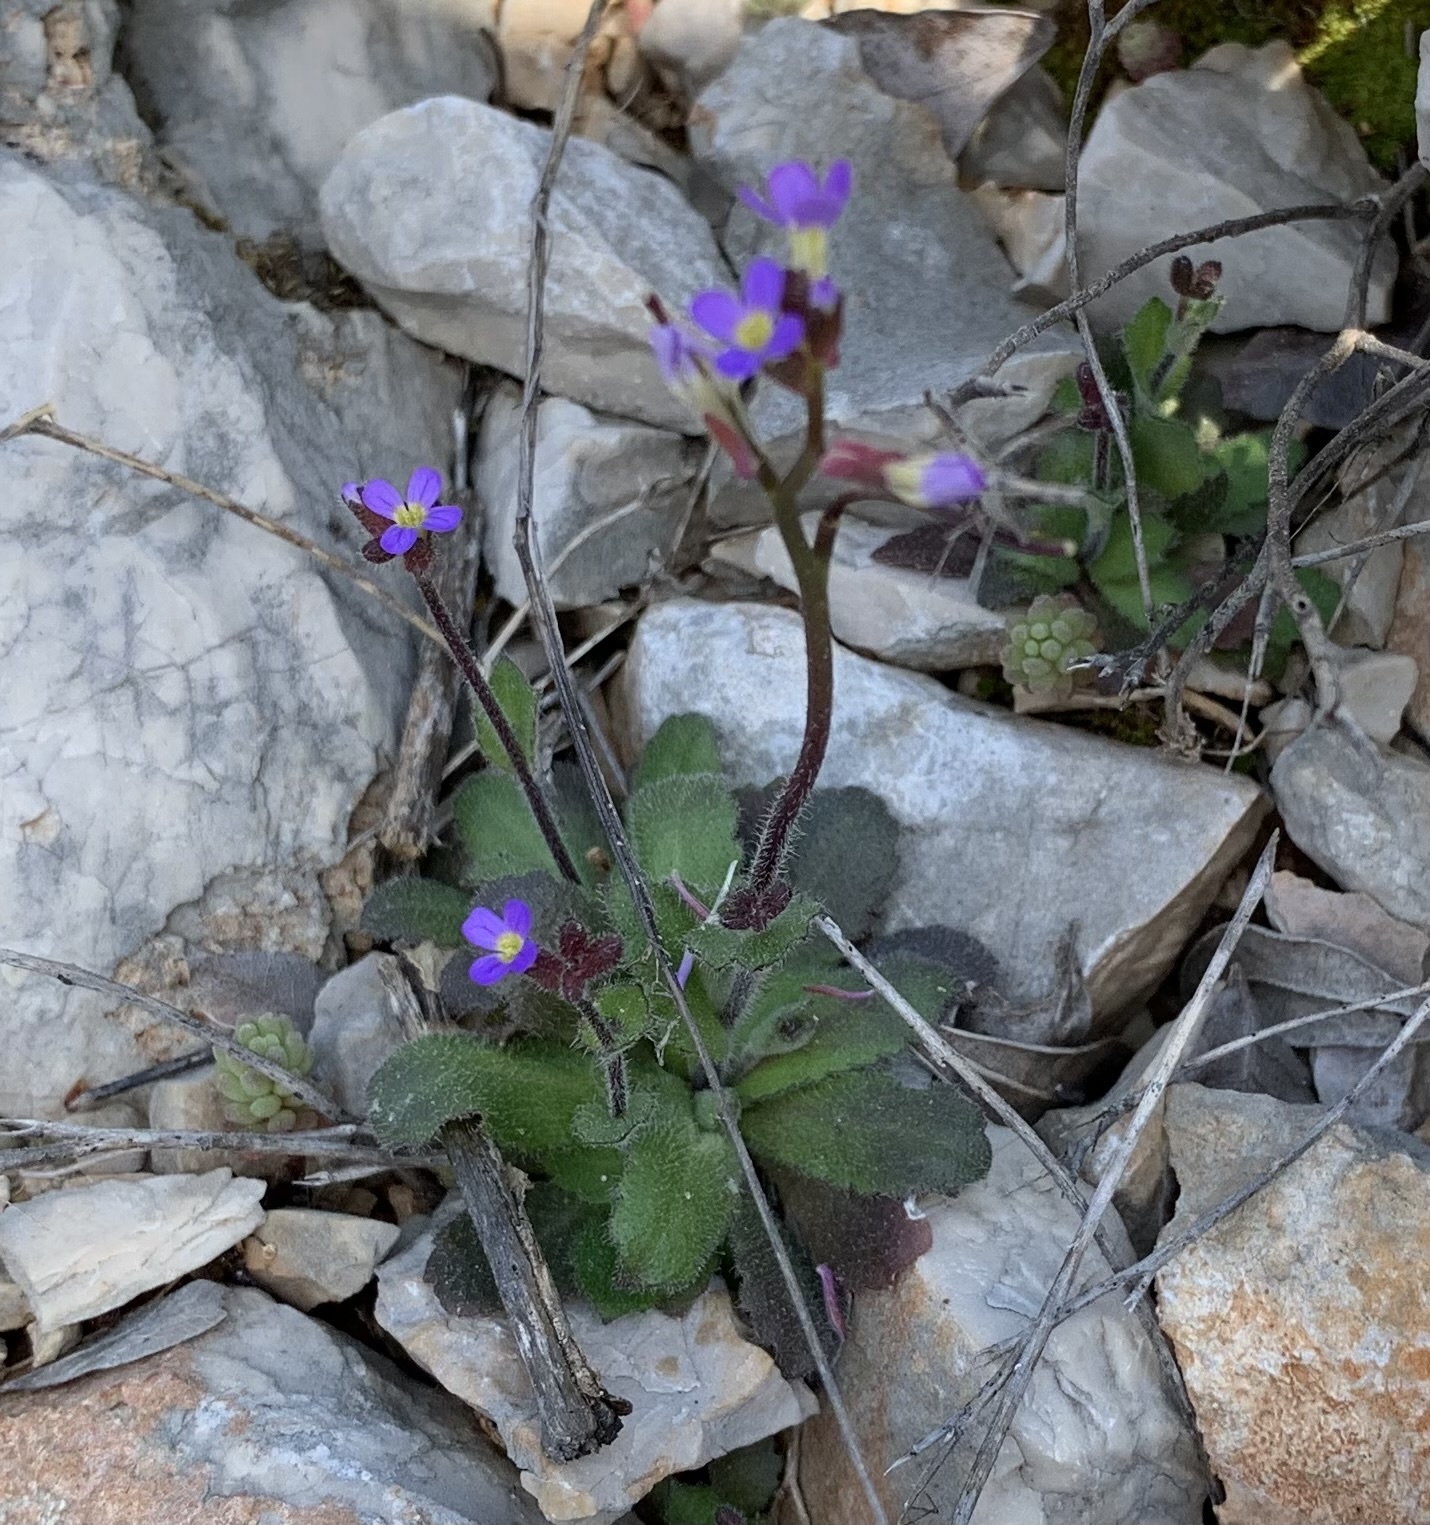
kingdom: Plantae
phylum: Tracheophyta
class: Magnoliopsida
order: Brassicales
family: Brassicaceae
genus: Arabis
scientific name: Arabis verna
